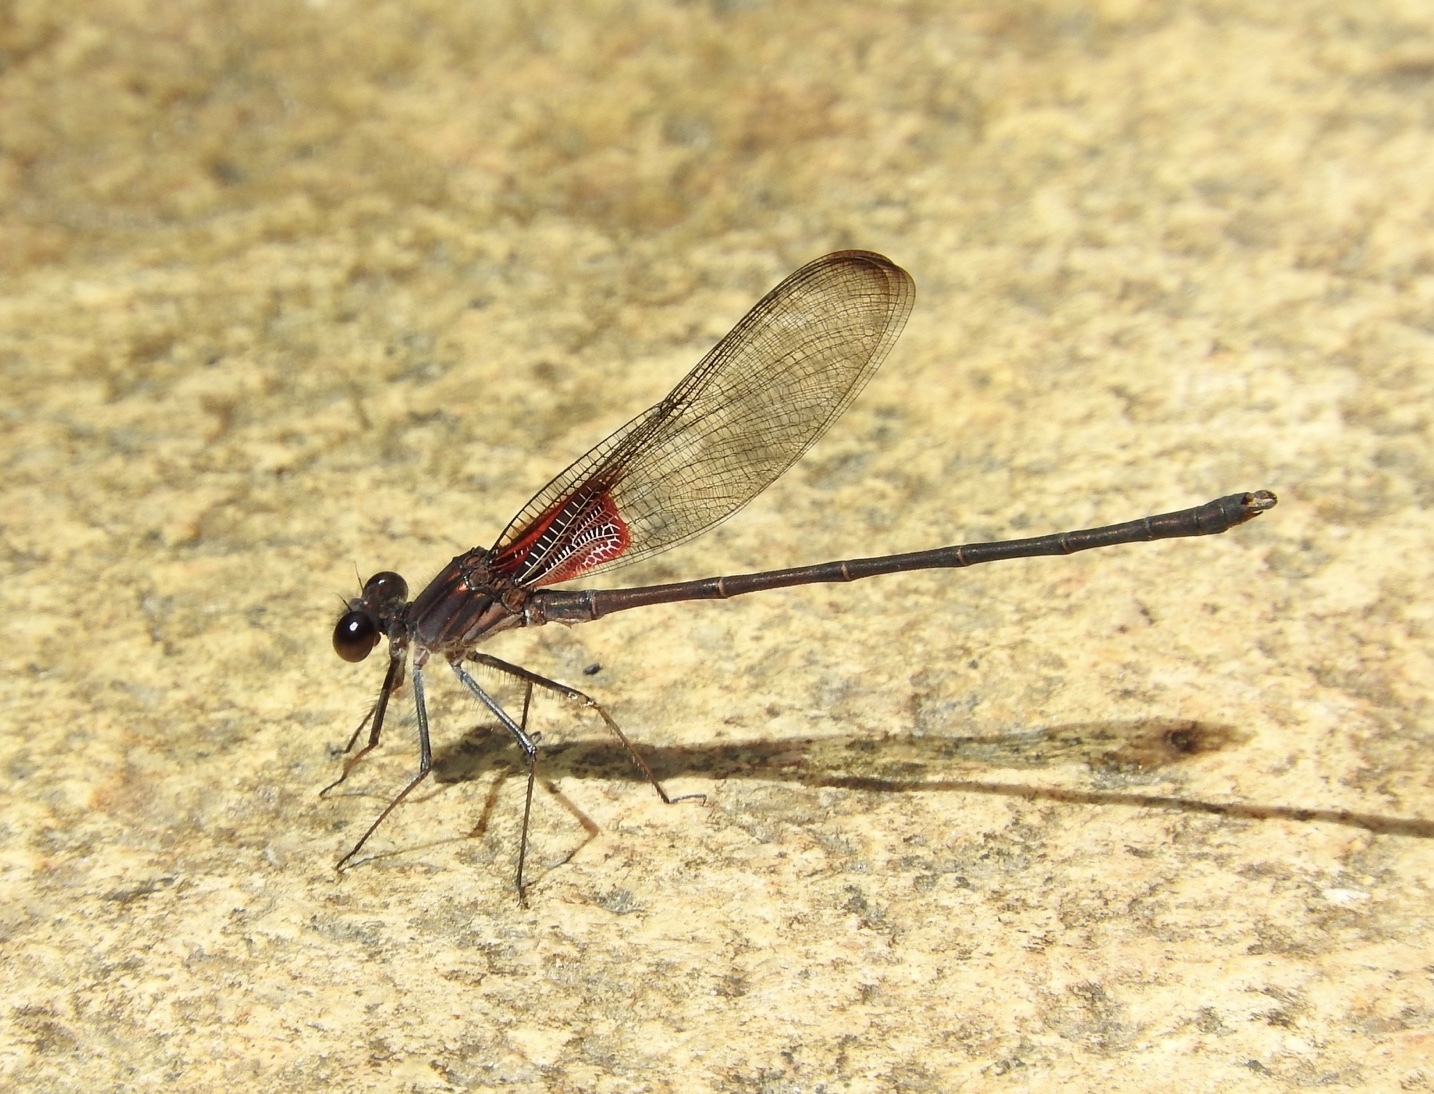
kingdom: Animalia
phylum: Arthropoda
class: Insecta
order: Odonata
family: Calopterygidae
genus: Hetaerina
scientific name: Hetaerina vulnerata
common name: Canyon rubyspot
